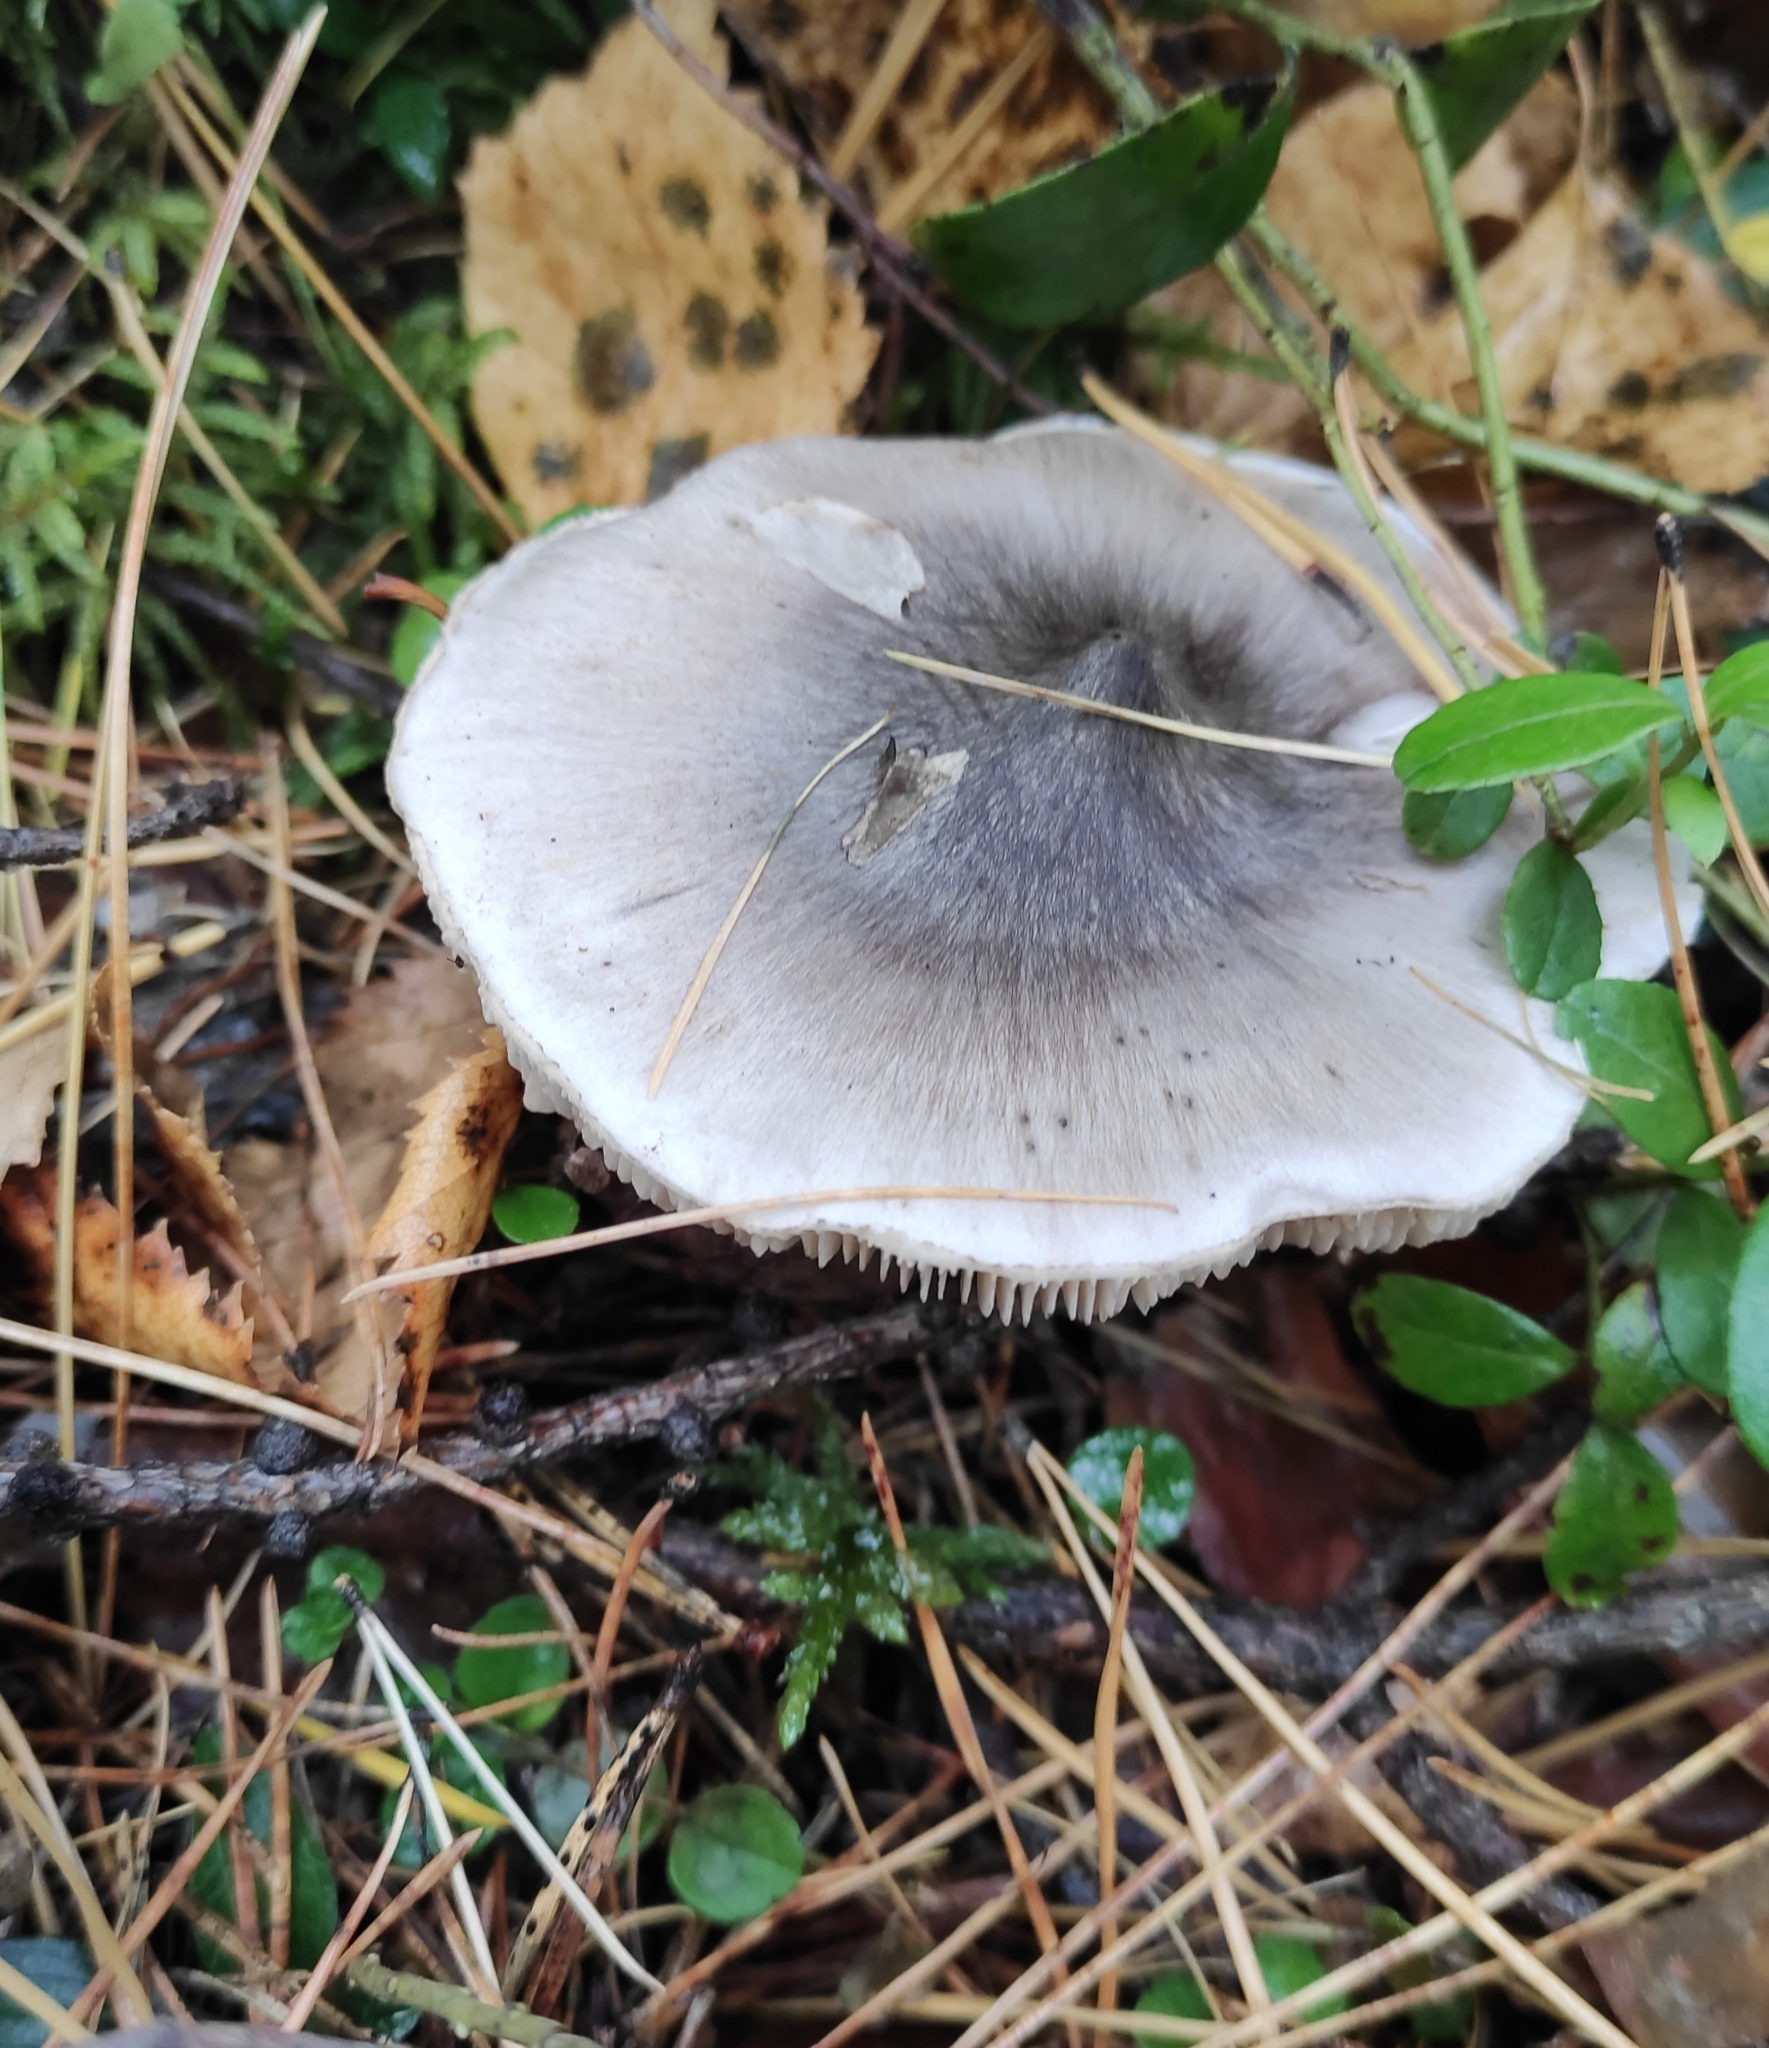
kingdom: Fungi
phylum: Basidiomycota
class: Agaricomycetes
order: Agaricales
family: Tricholomataceae
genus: Tricholoma
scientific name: Tricholoma virgatum
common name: Ashen knight
